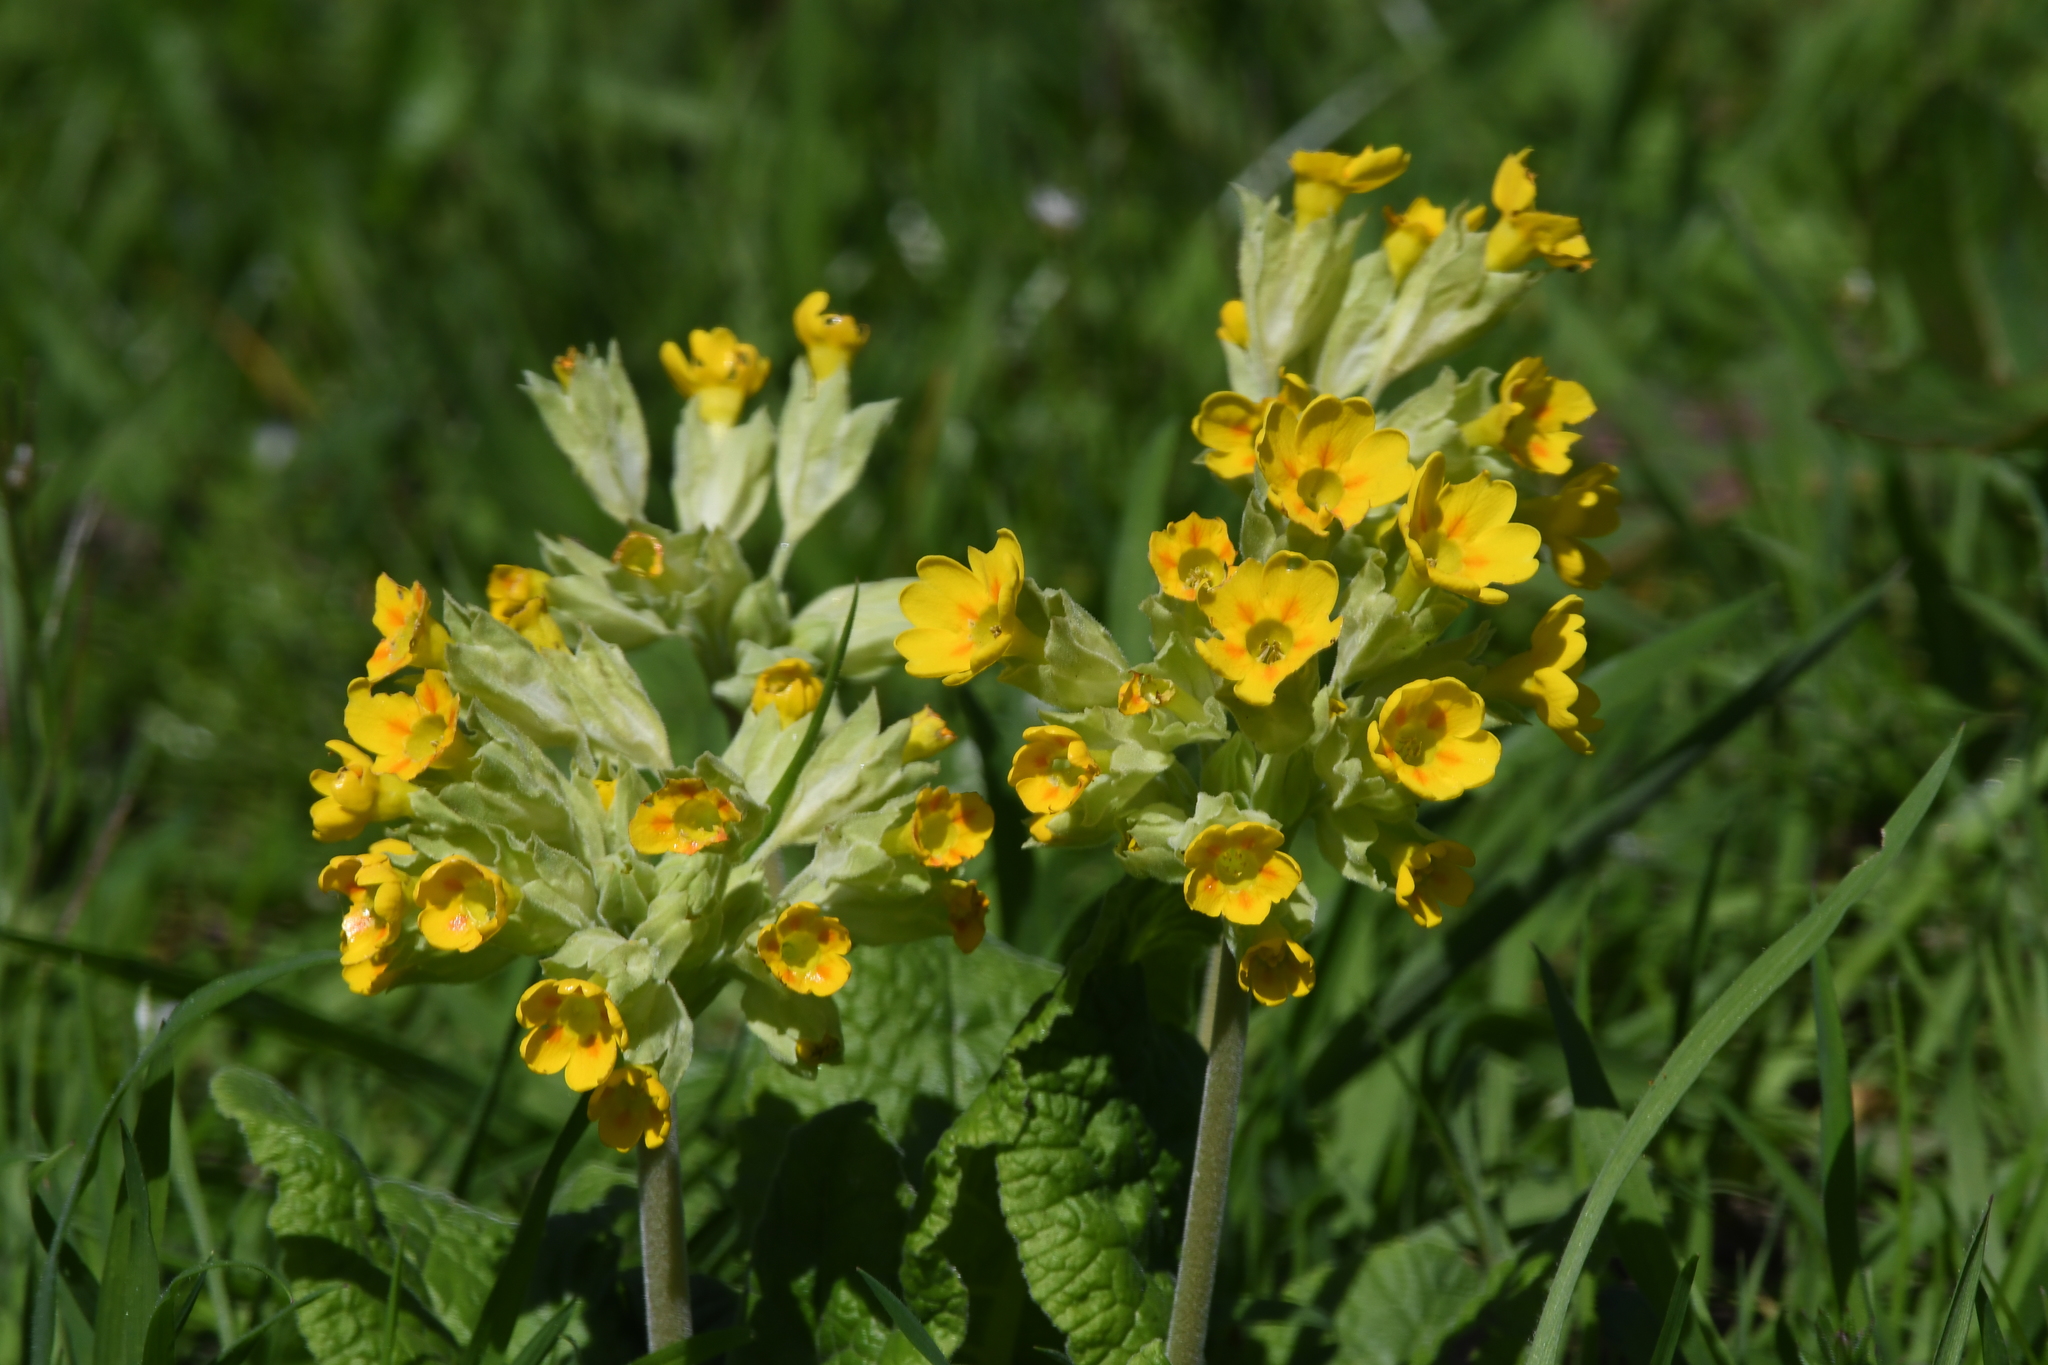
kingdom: Plantae
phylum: Tracheophyta
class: Magnoliopsida
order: Ericales
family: Primulaceae
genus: Primula
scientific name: Primula veris
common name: Cowslip
